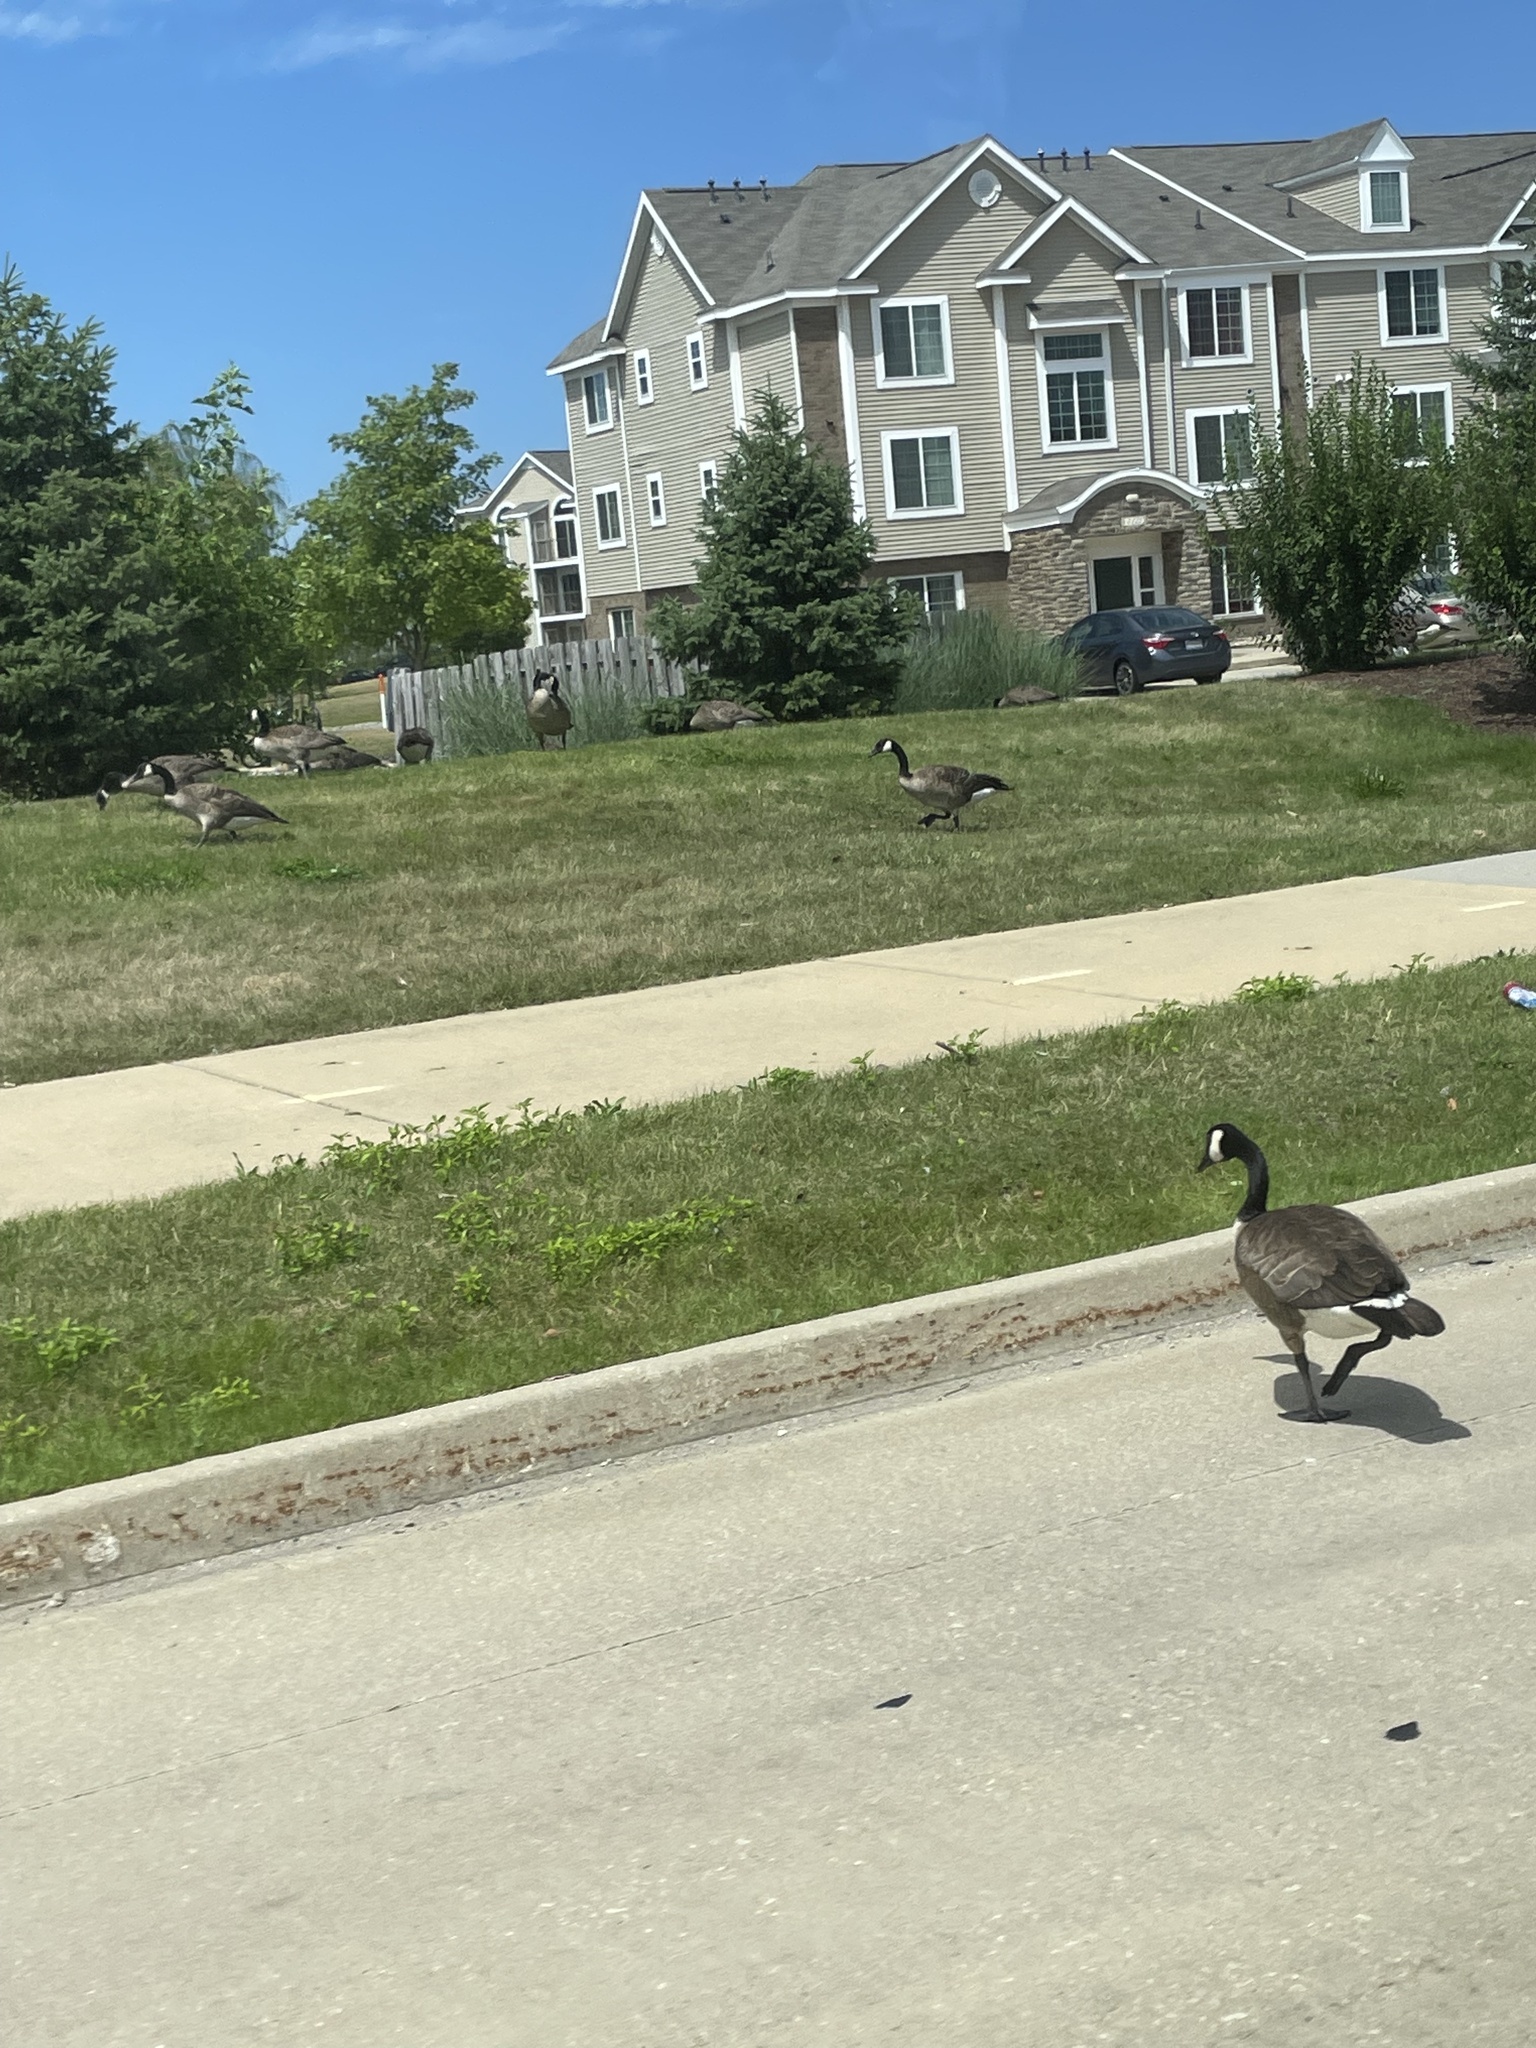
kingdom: Animalia
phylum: Chordata
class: Aves
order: Anseriformes
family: Anatidae
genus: Branta
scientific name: Branta canadensis
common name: Canada goose
